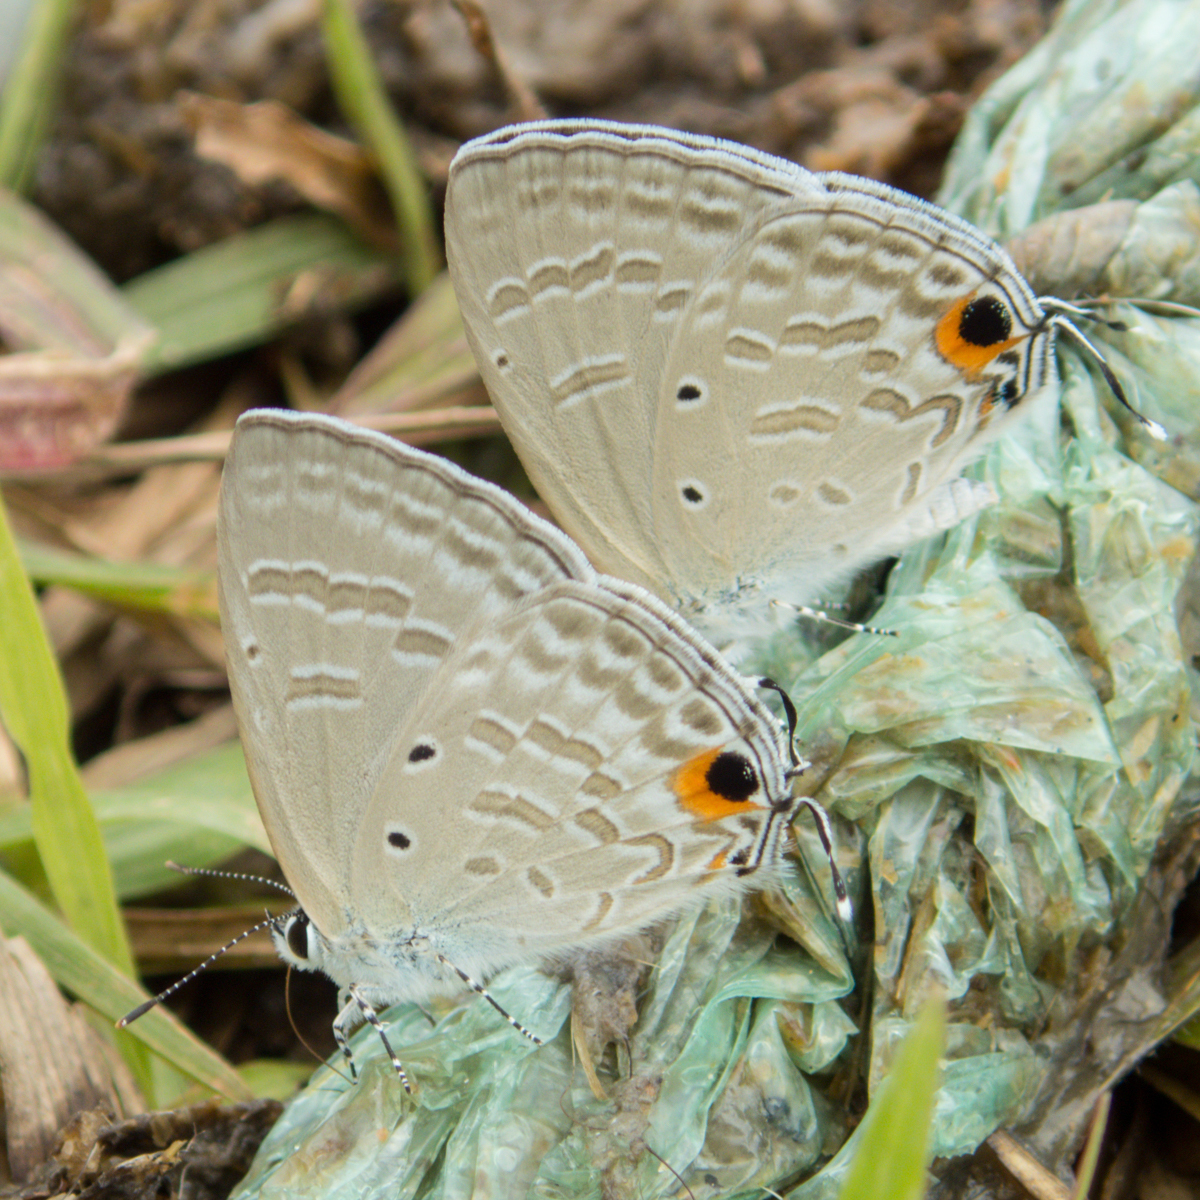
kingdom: Animalia
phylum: Arthropoda
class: Insecta
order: Lepidoptera
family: Lycaenidae
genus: Catochrysops
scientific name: Catochrysops strabo
